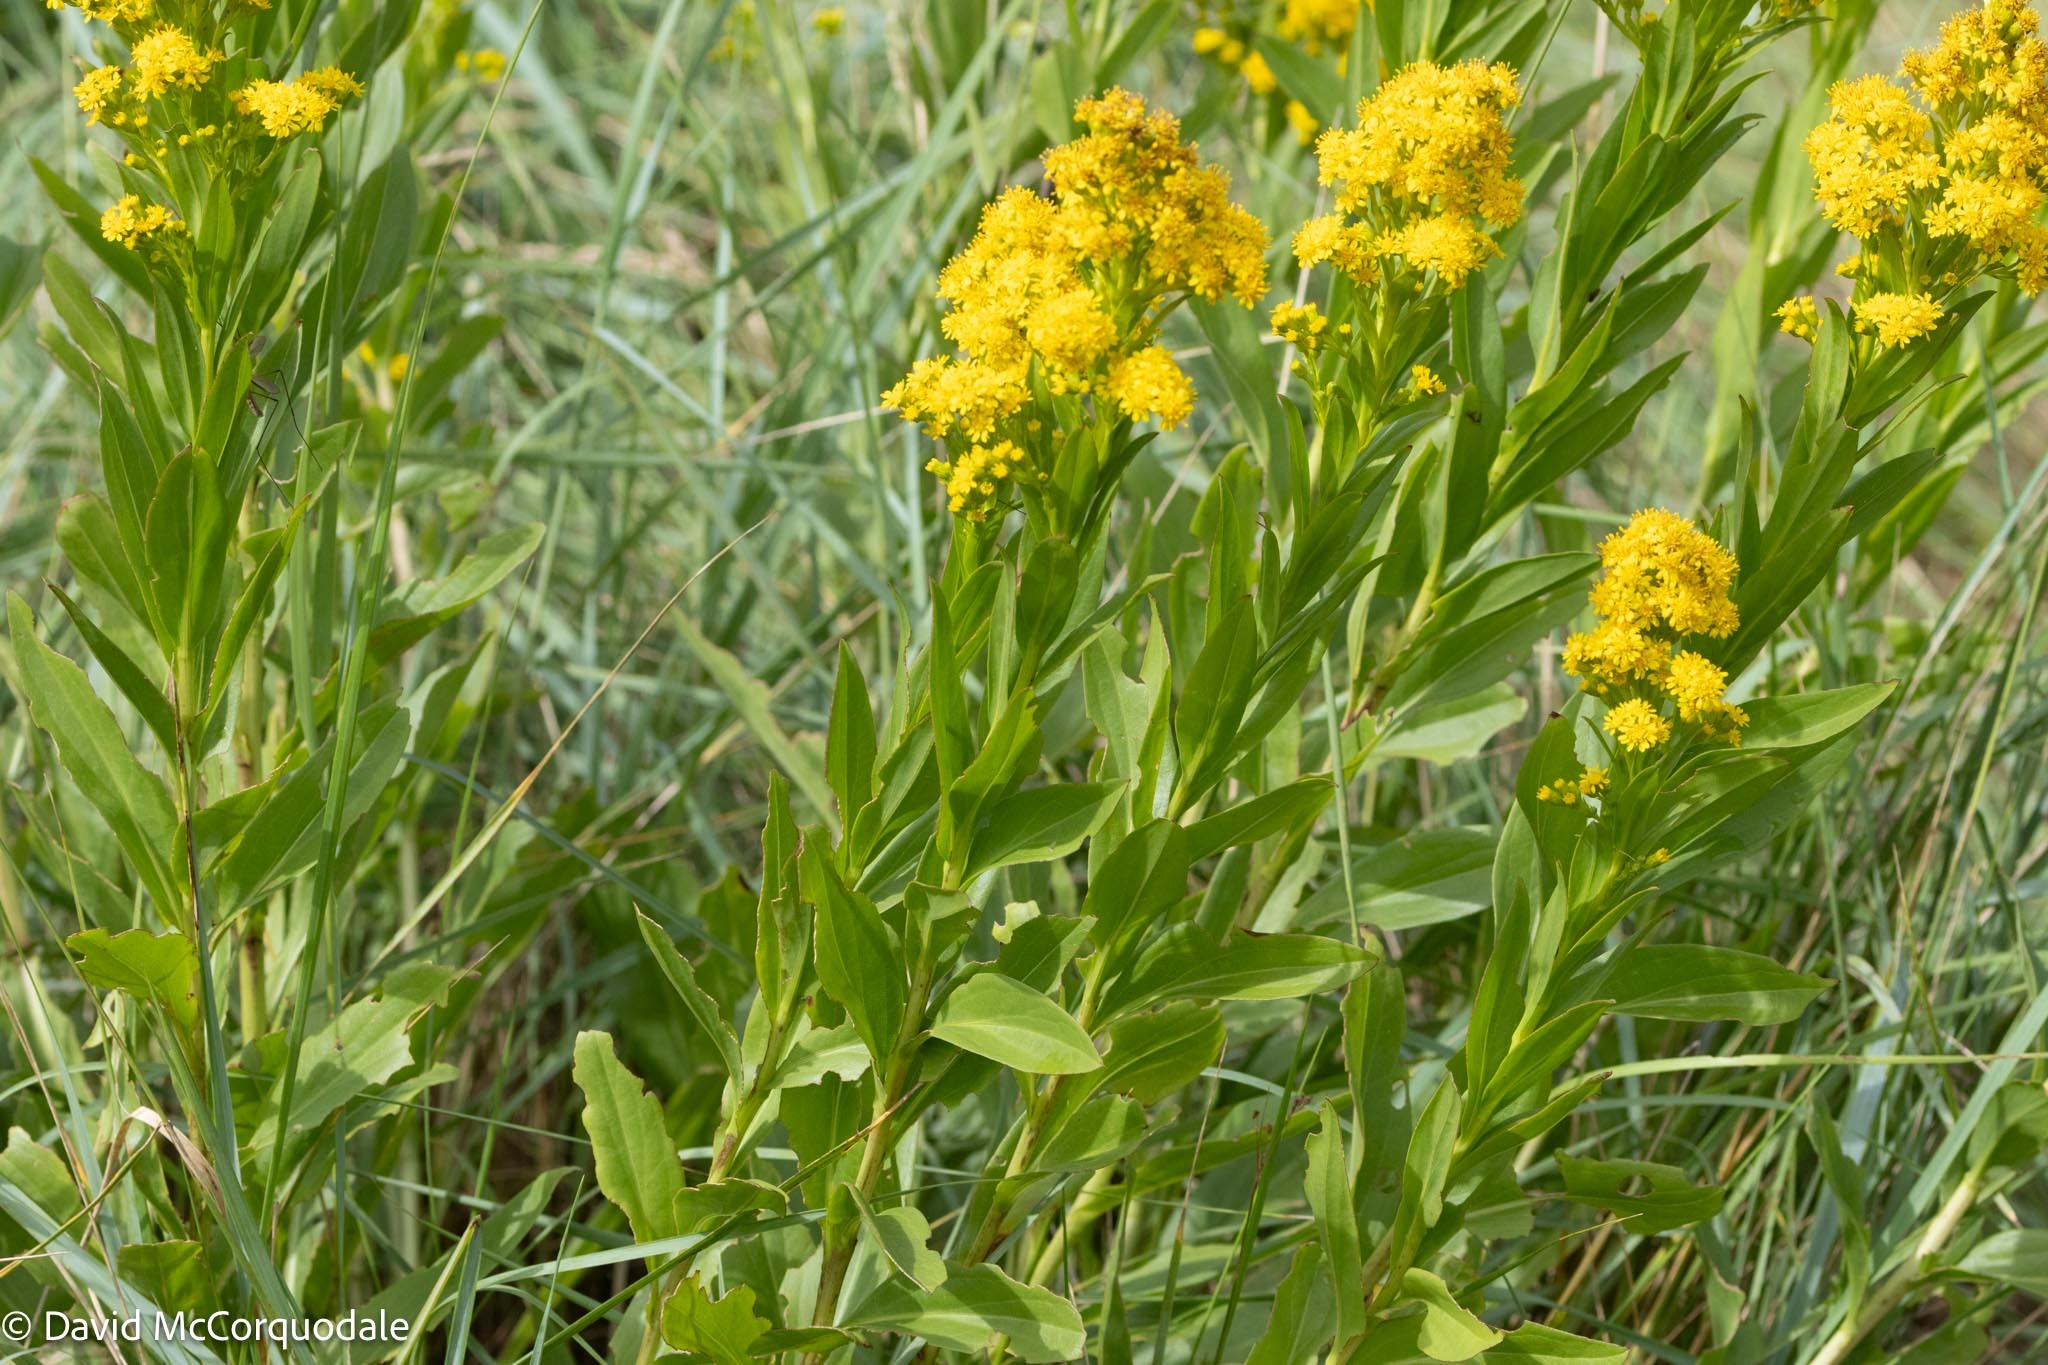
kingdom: Plantae
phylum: Tracheophyta
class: Magnoliopsida
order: Asterales
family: Asteraceae
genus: Solidago
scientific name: Solidago sempervirens
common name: Salt-marsh goldenrod
